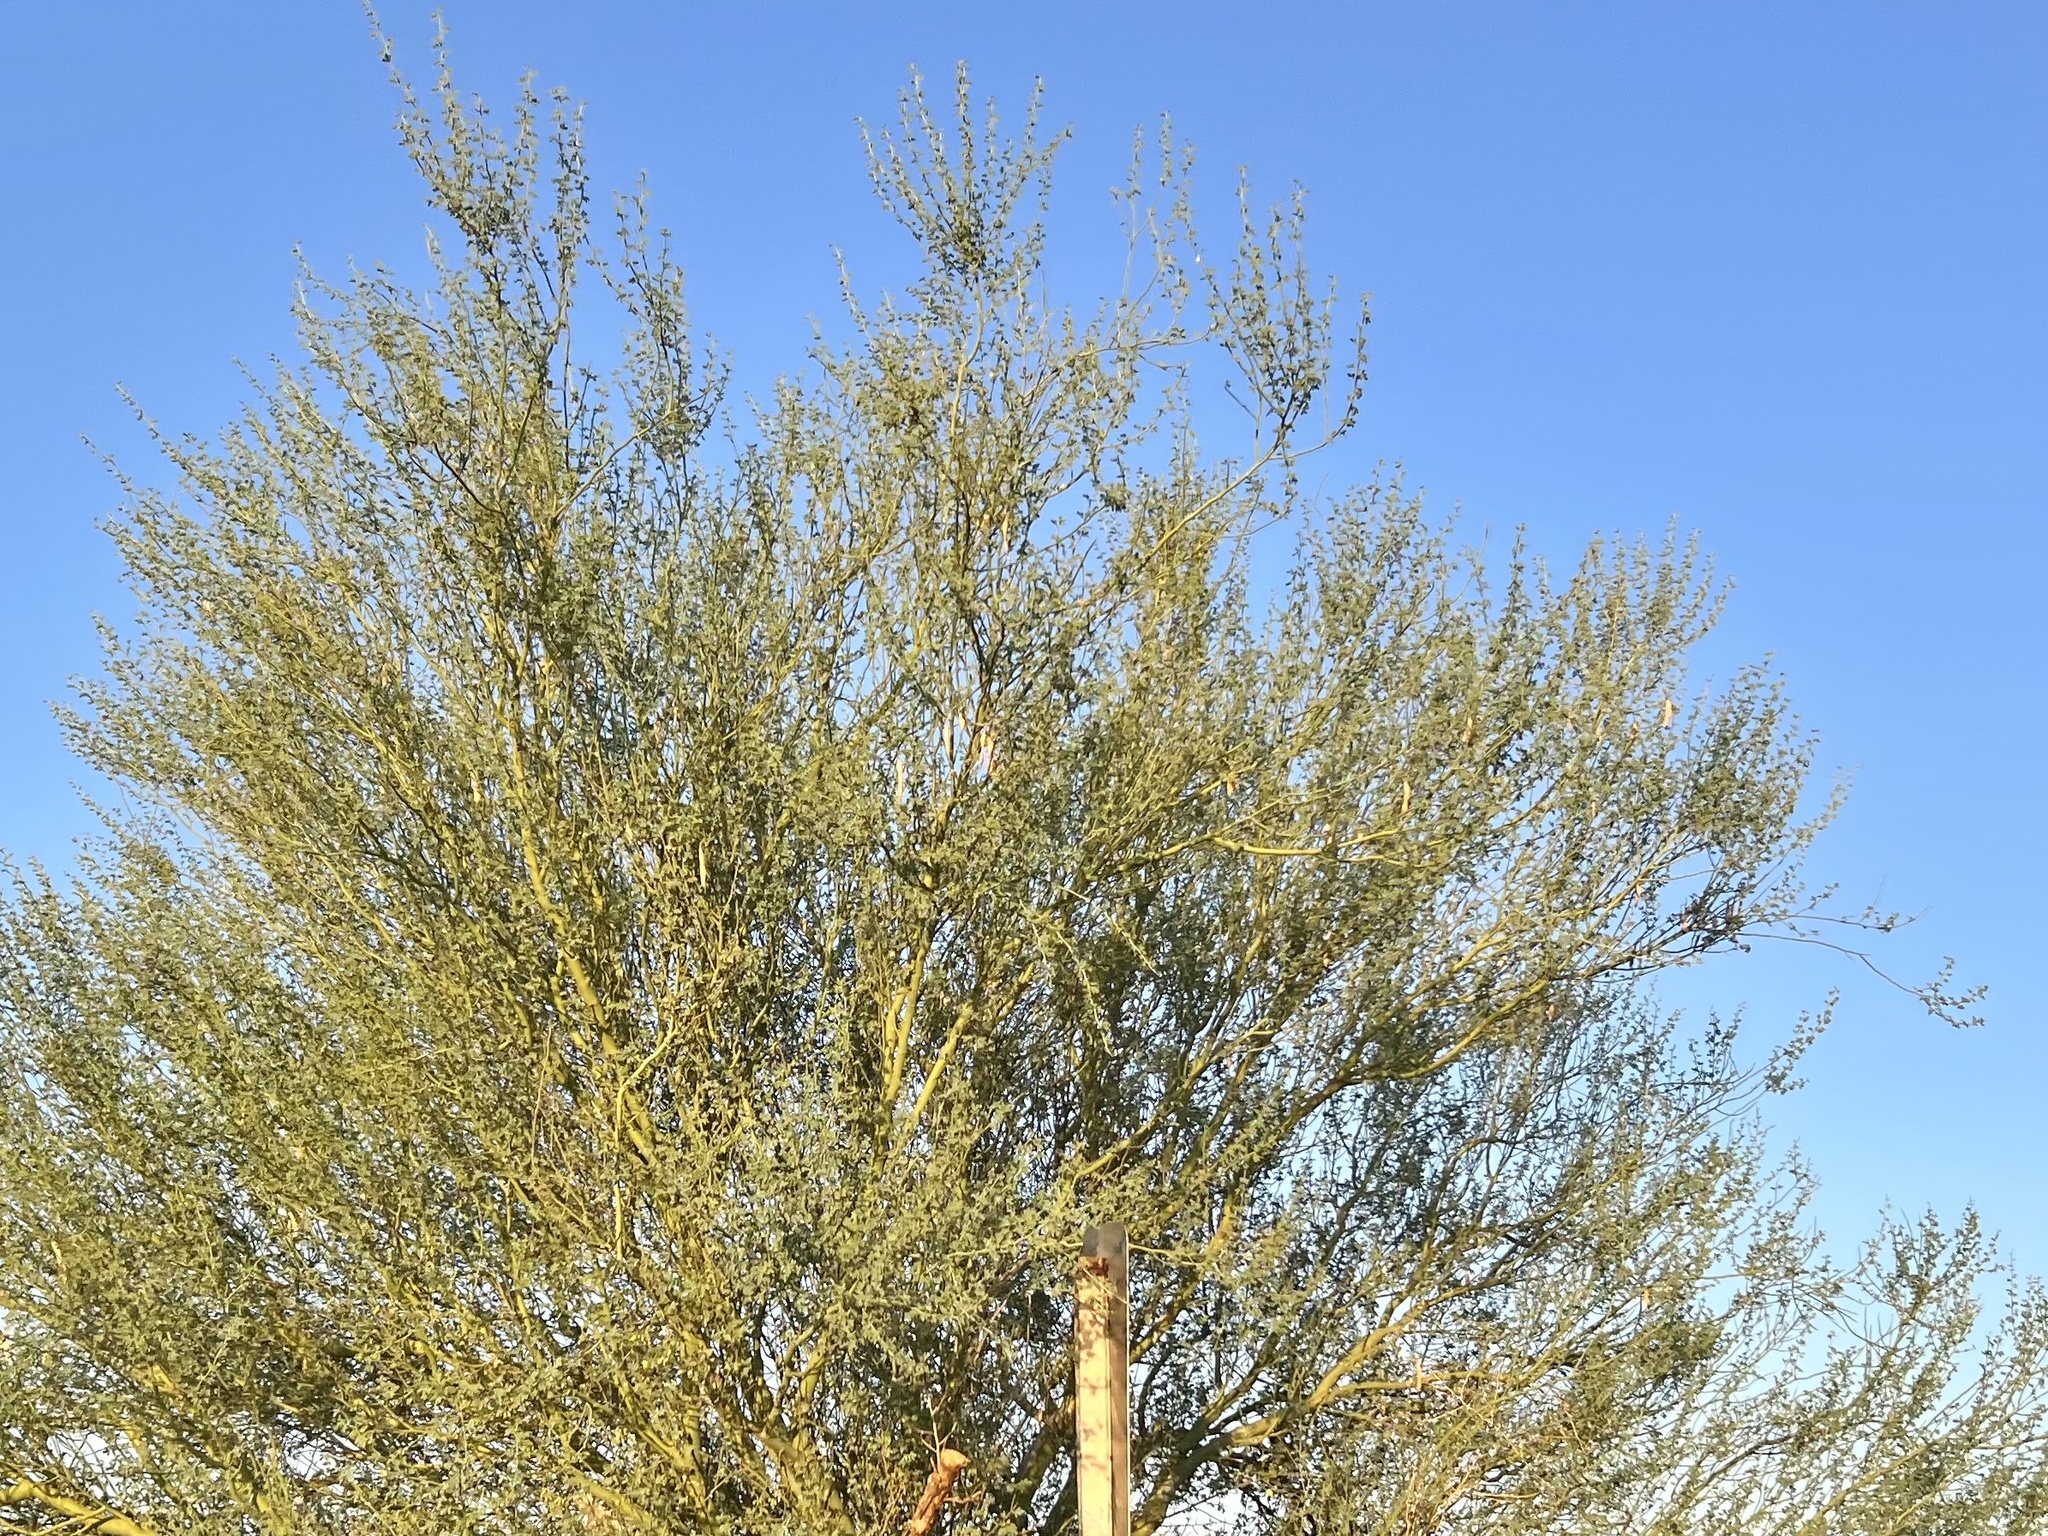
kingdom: Plantae
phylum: Tracheophyta
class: Magnoliopsida
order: Fabales
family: Fabaceae
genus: Parkinsonia
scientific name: Parkinsonia florida
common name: Blue paloverde
